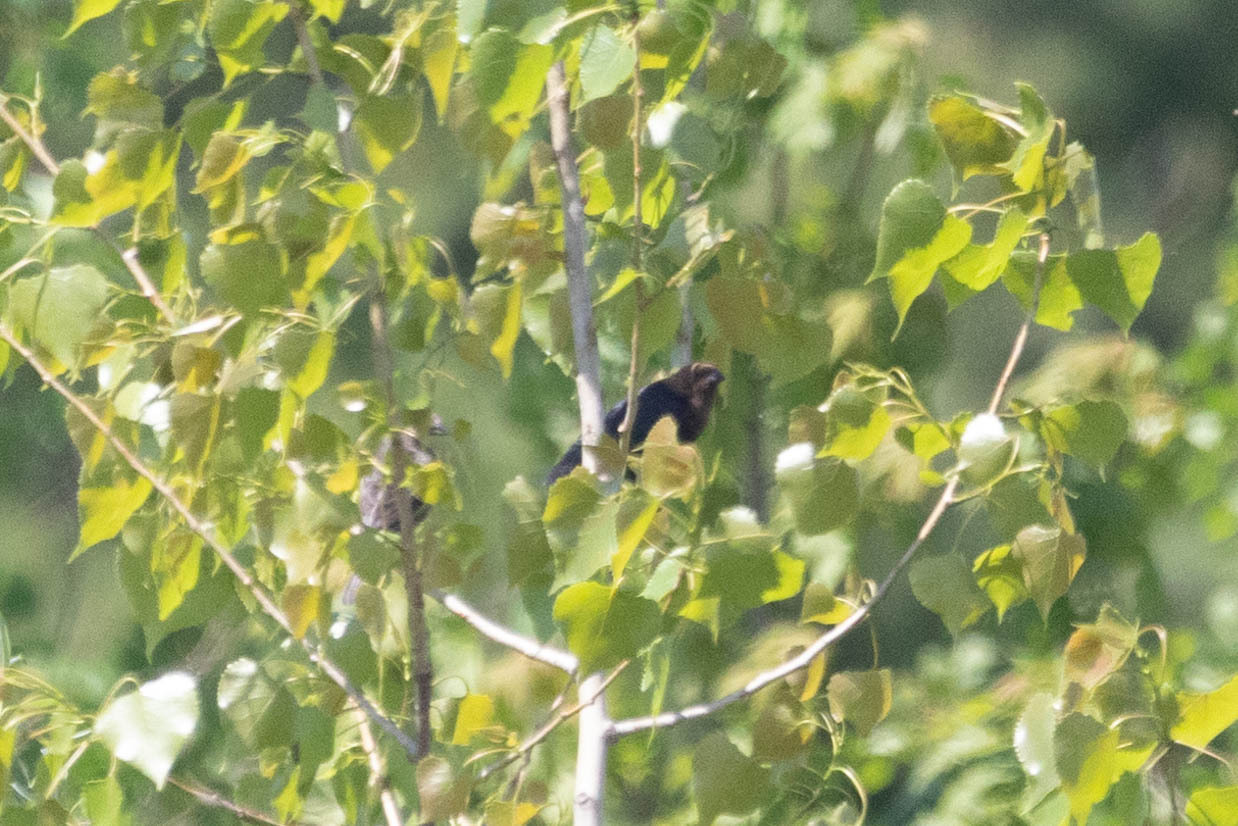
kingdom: Animalia
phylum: Chordata
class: Aves
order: Passeriformes
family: Icteridae
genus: Molothrus
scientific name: Molothrus ater
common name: Brown-headed cowbird
